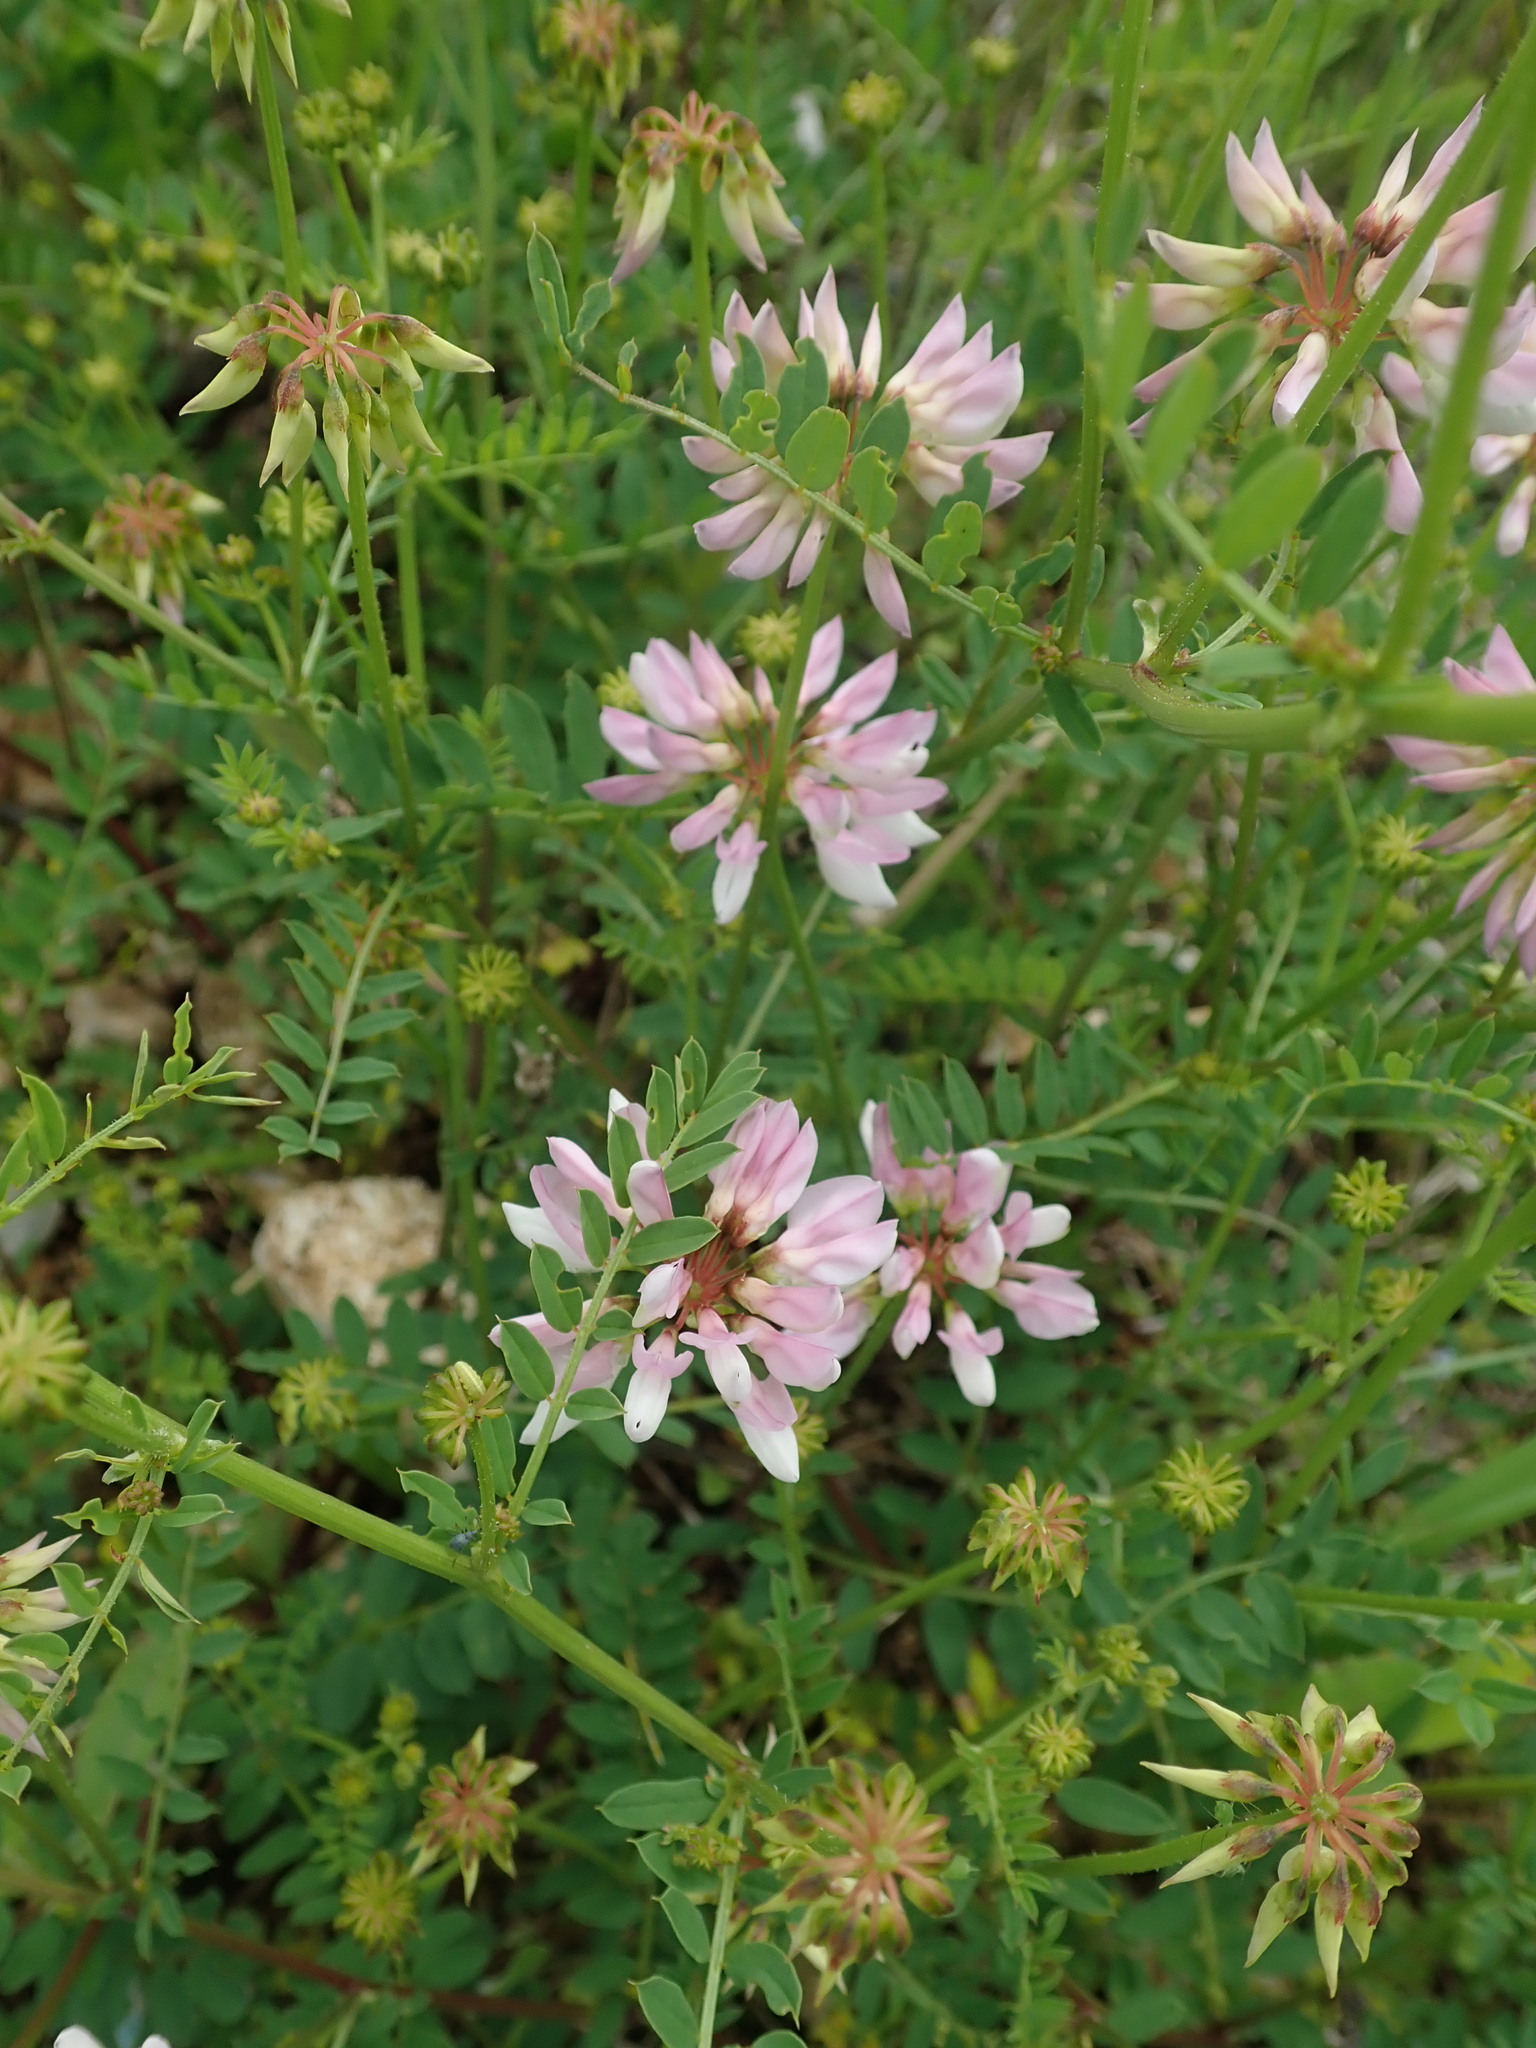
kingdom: Plantae
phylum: Tracheophyta
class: Magnoliopsida
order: Fabales
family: Fabaceae
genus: Coronilla
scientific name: Coronilla varia
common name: Crownvetch
